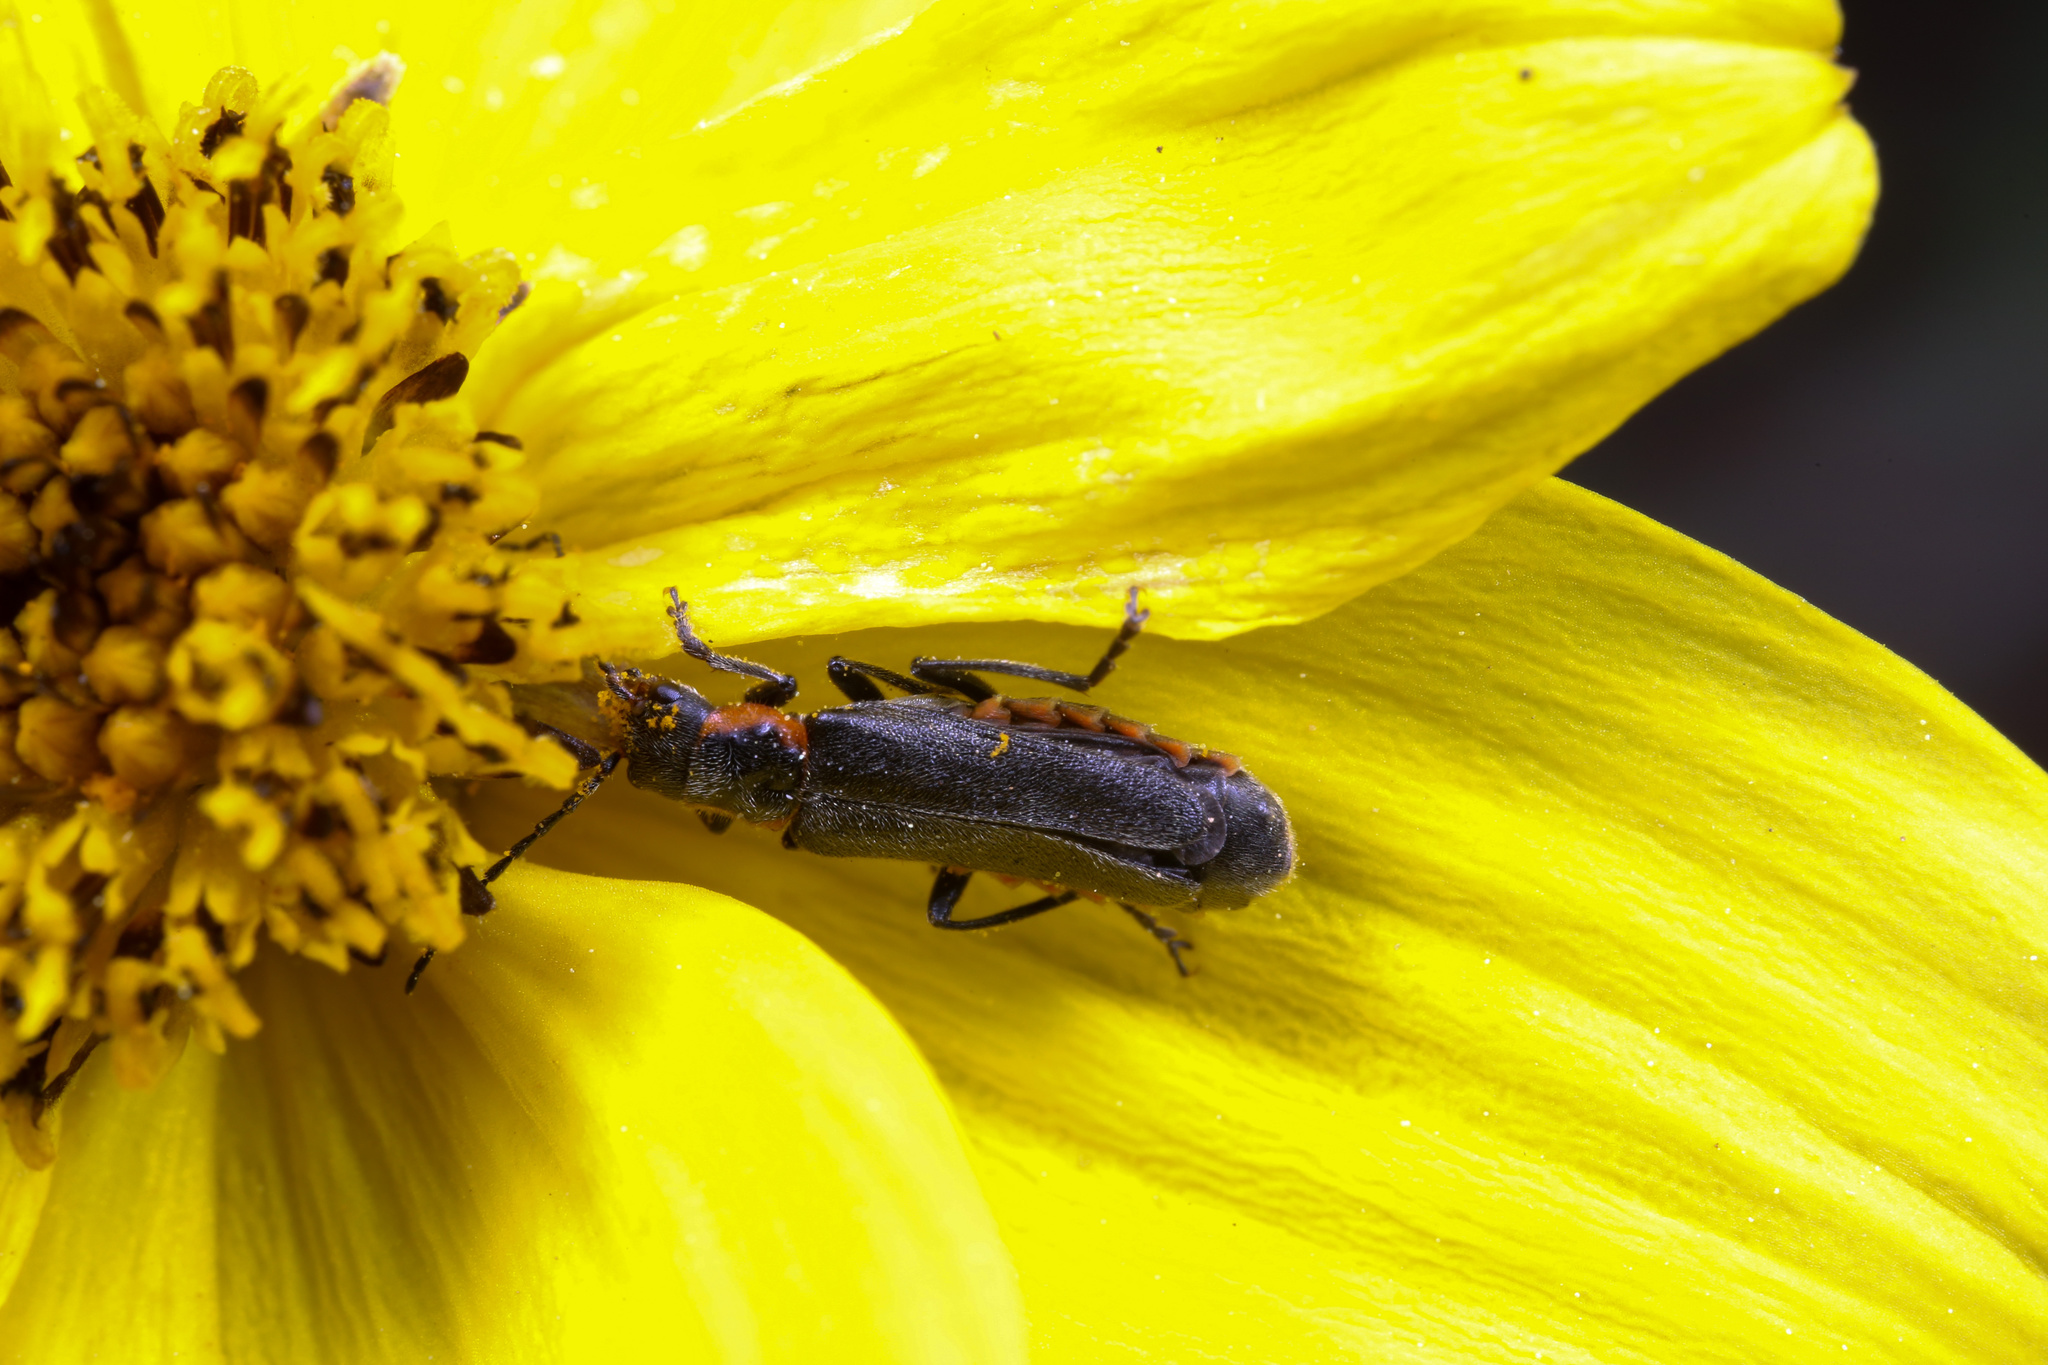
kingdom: Animalia
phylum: Arthropoda
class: Insecta
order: Coleoptera
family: Cantharidae
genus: Cantharis
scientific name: Cantharis pulicaria
